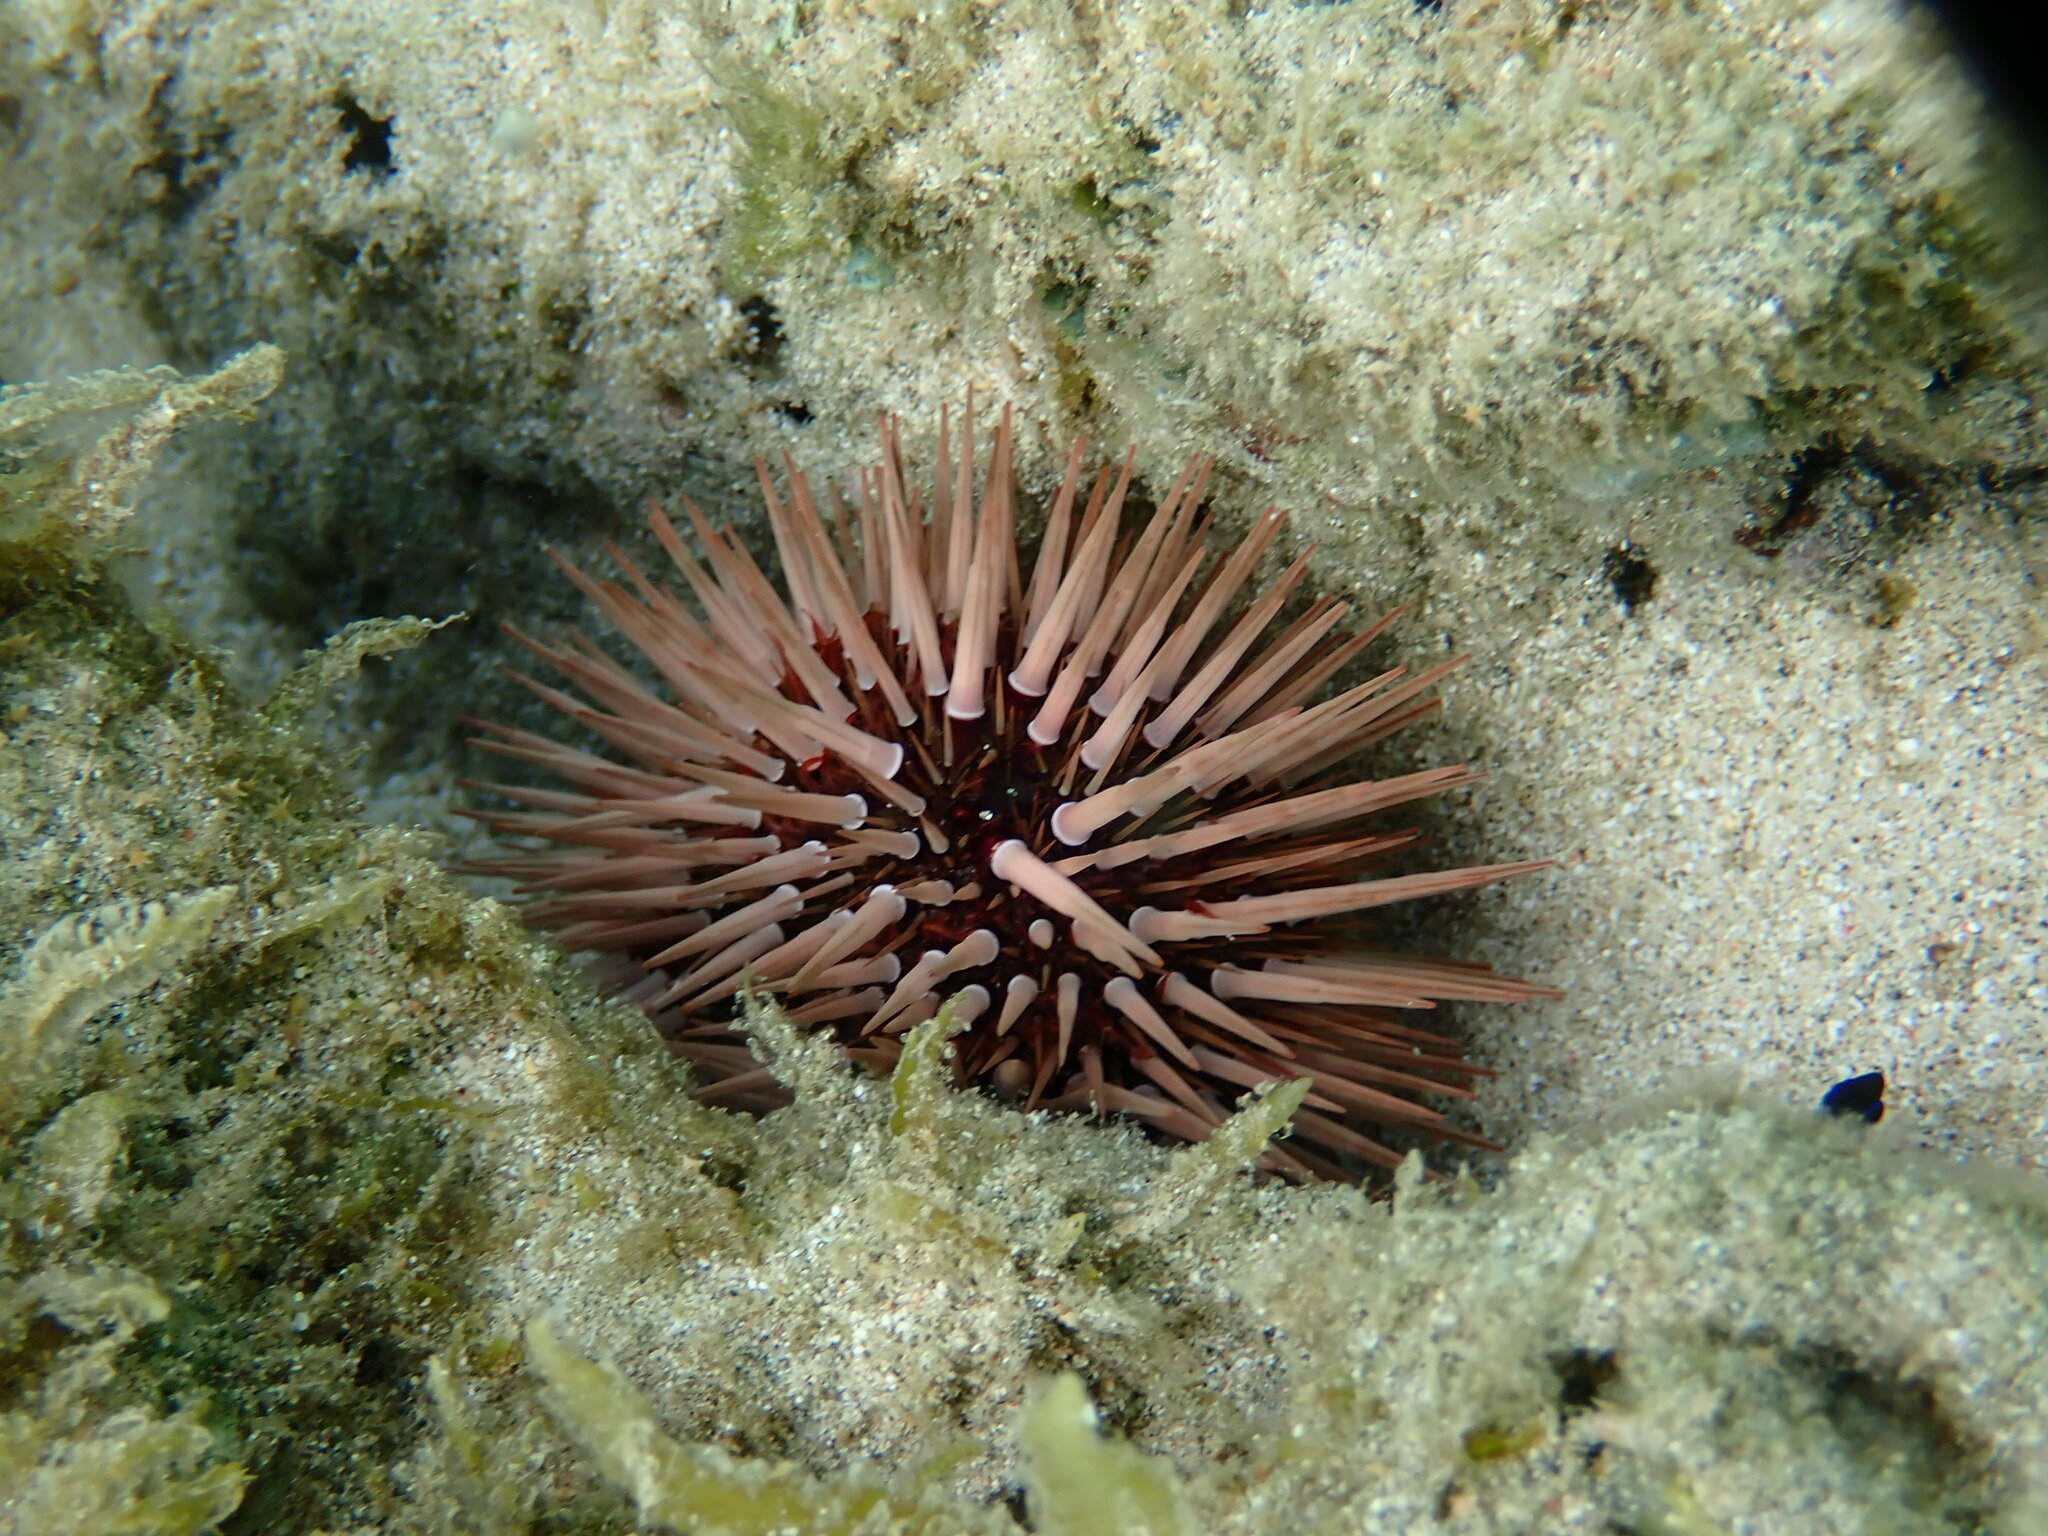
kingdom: Animalia
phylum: Echinodermata
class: Echinoidea
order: Camarodonta
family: Echinometridae
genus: Echinometra
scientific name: Echinometra mathaei
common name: Rock-boring urchin
